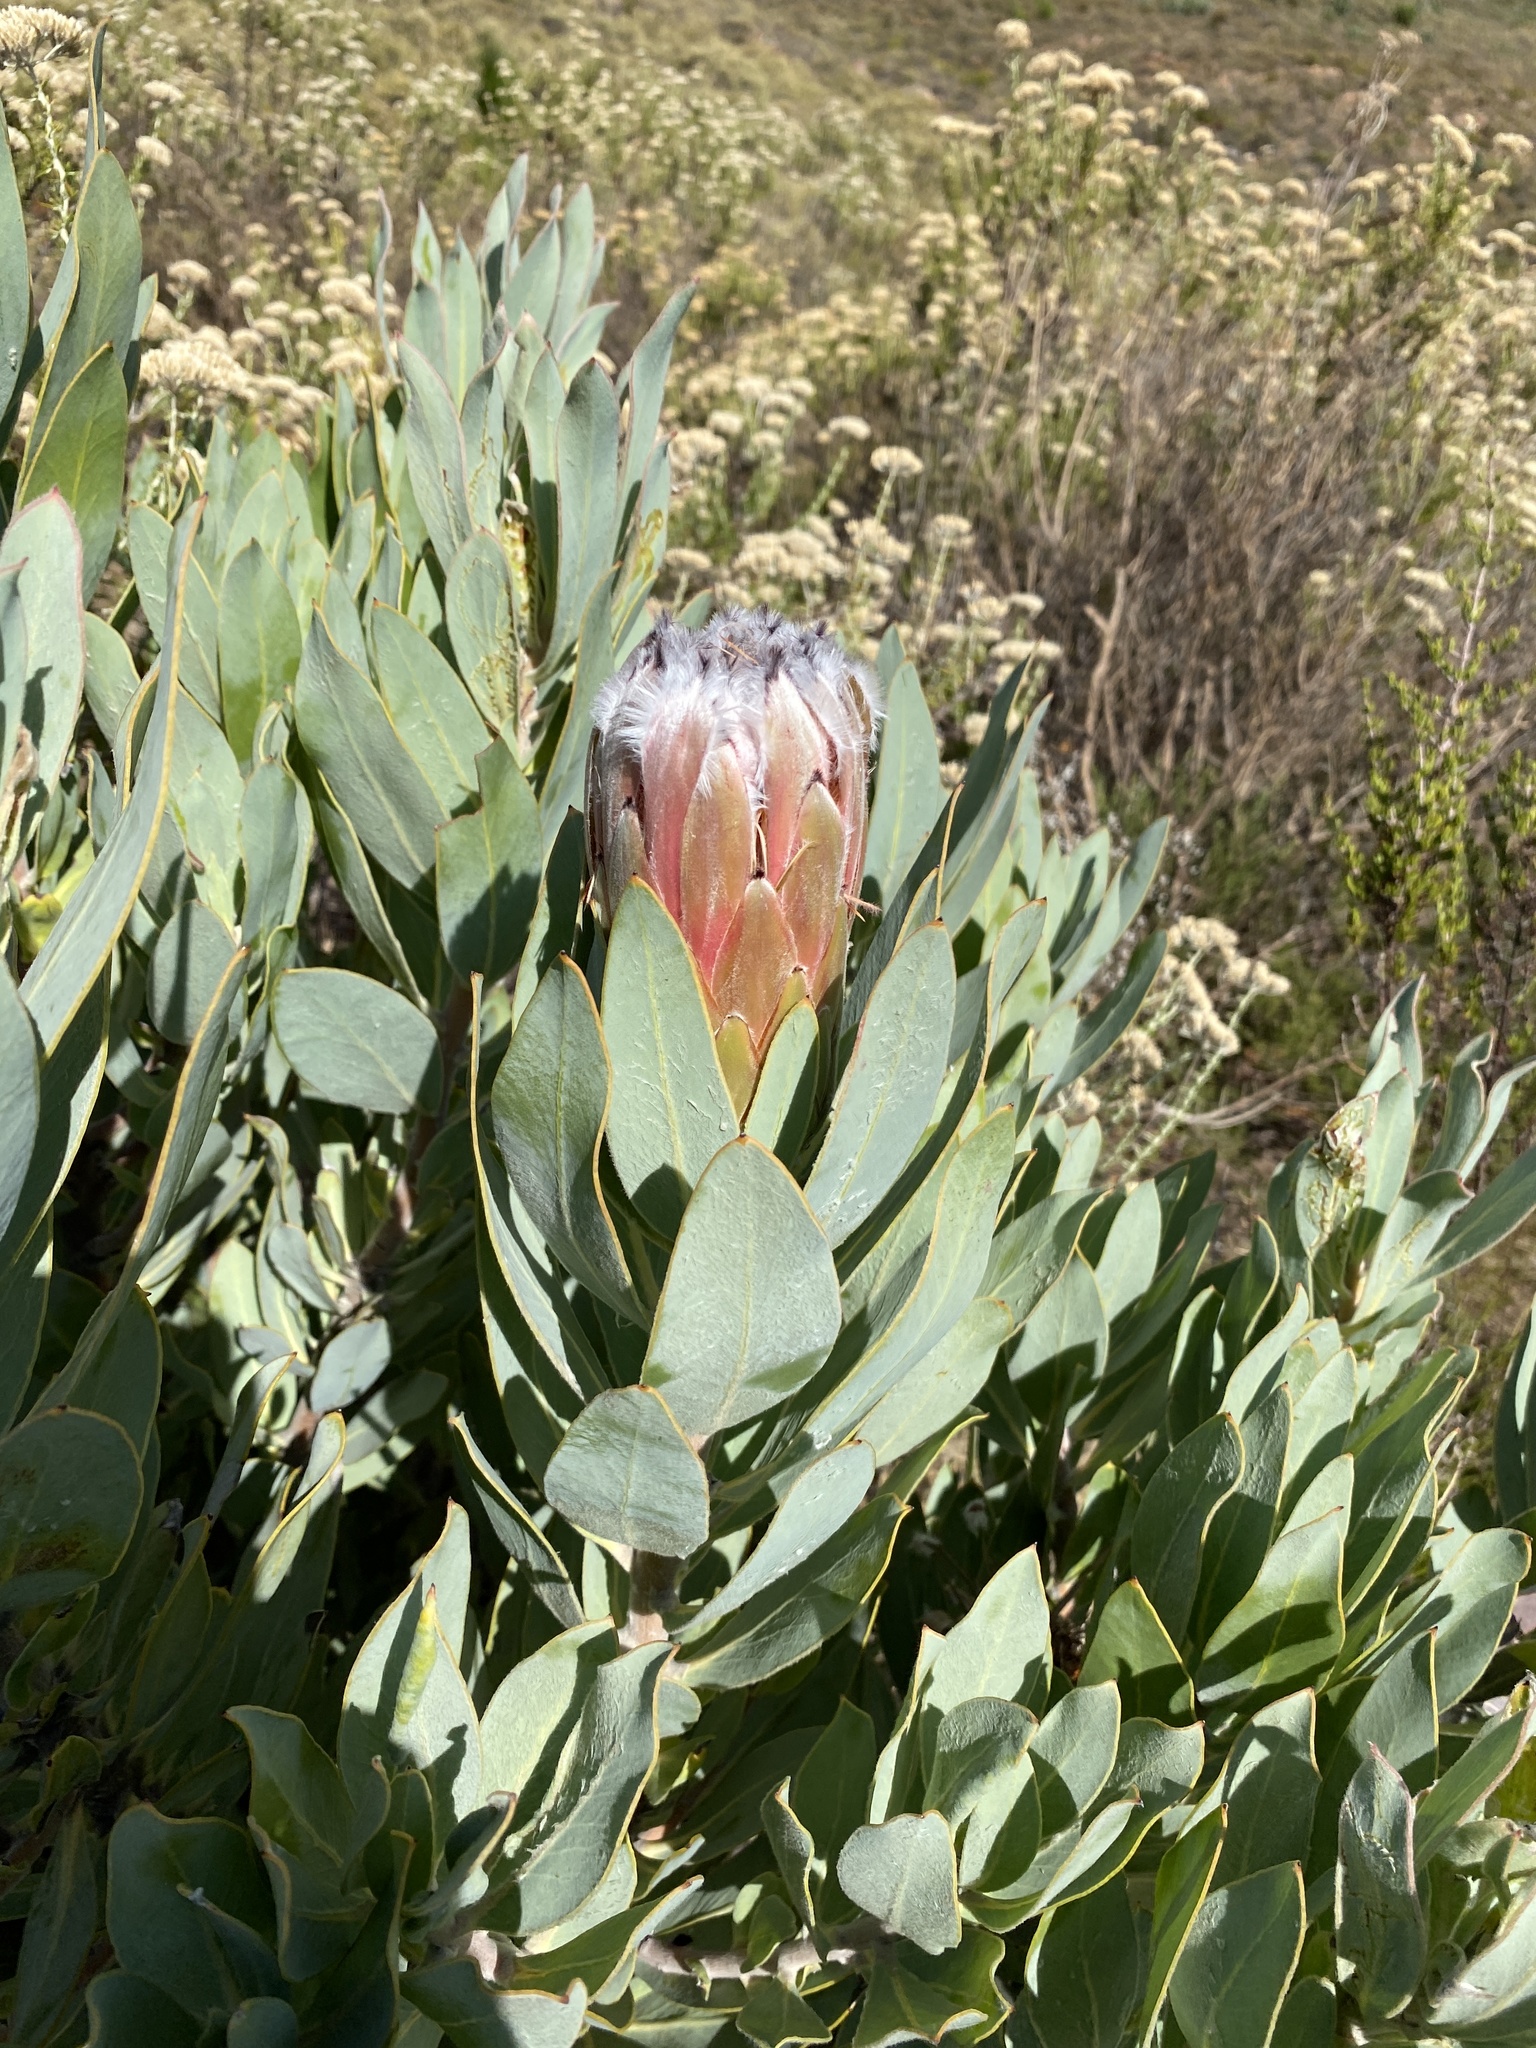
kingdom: Plantae
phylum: Tracheophyta
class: Magnoliopsida
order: Proteales
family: Proteaceae
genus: Protea
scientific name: Protea laurifolia
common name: Grey-leaf sugarbsh
